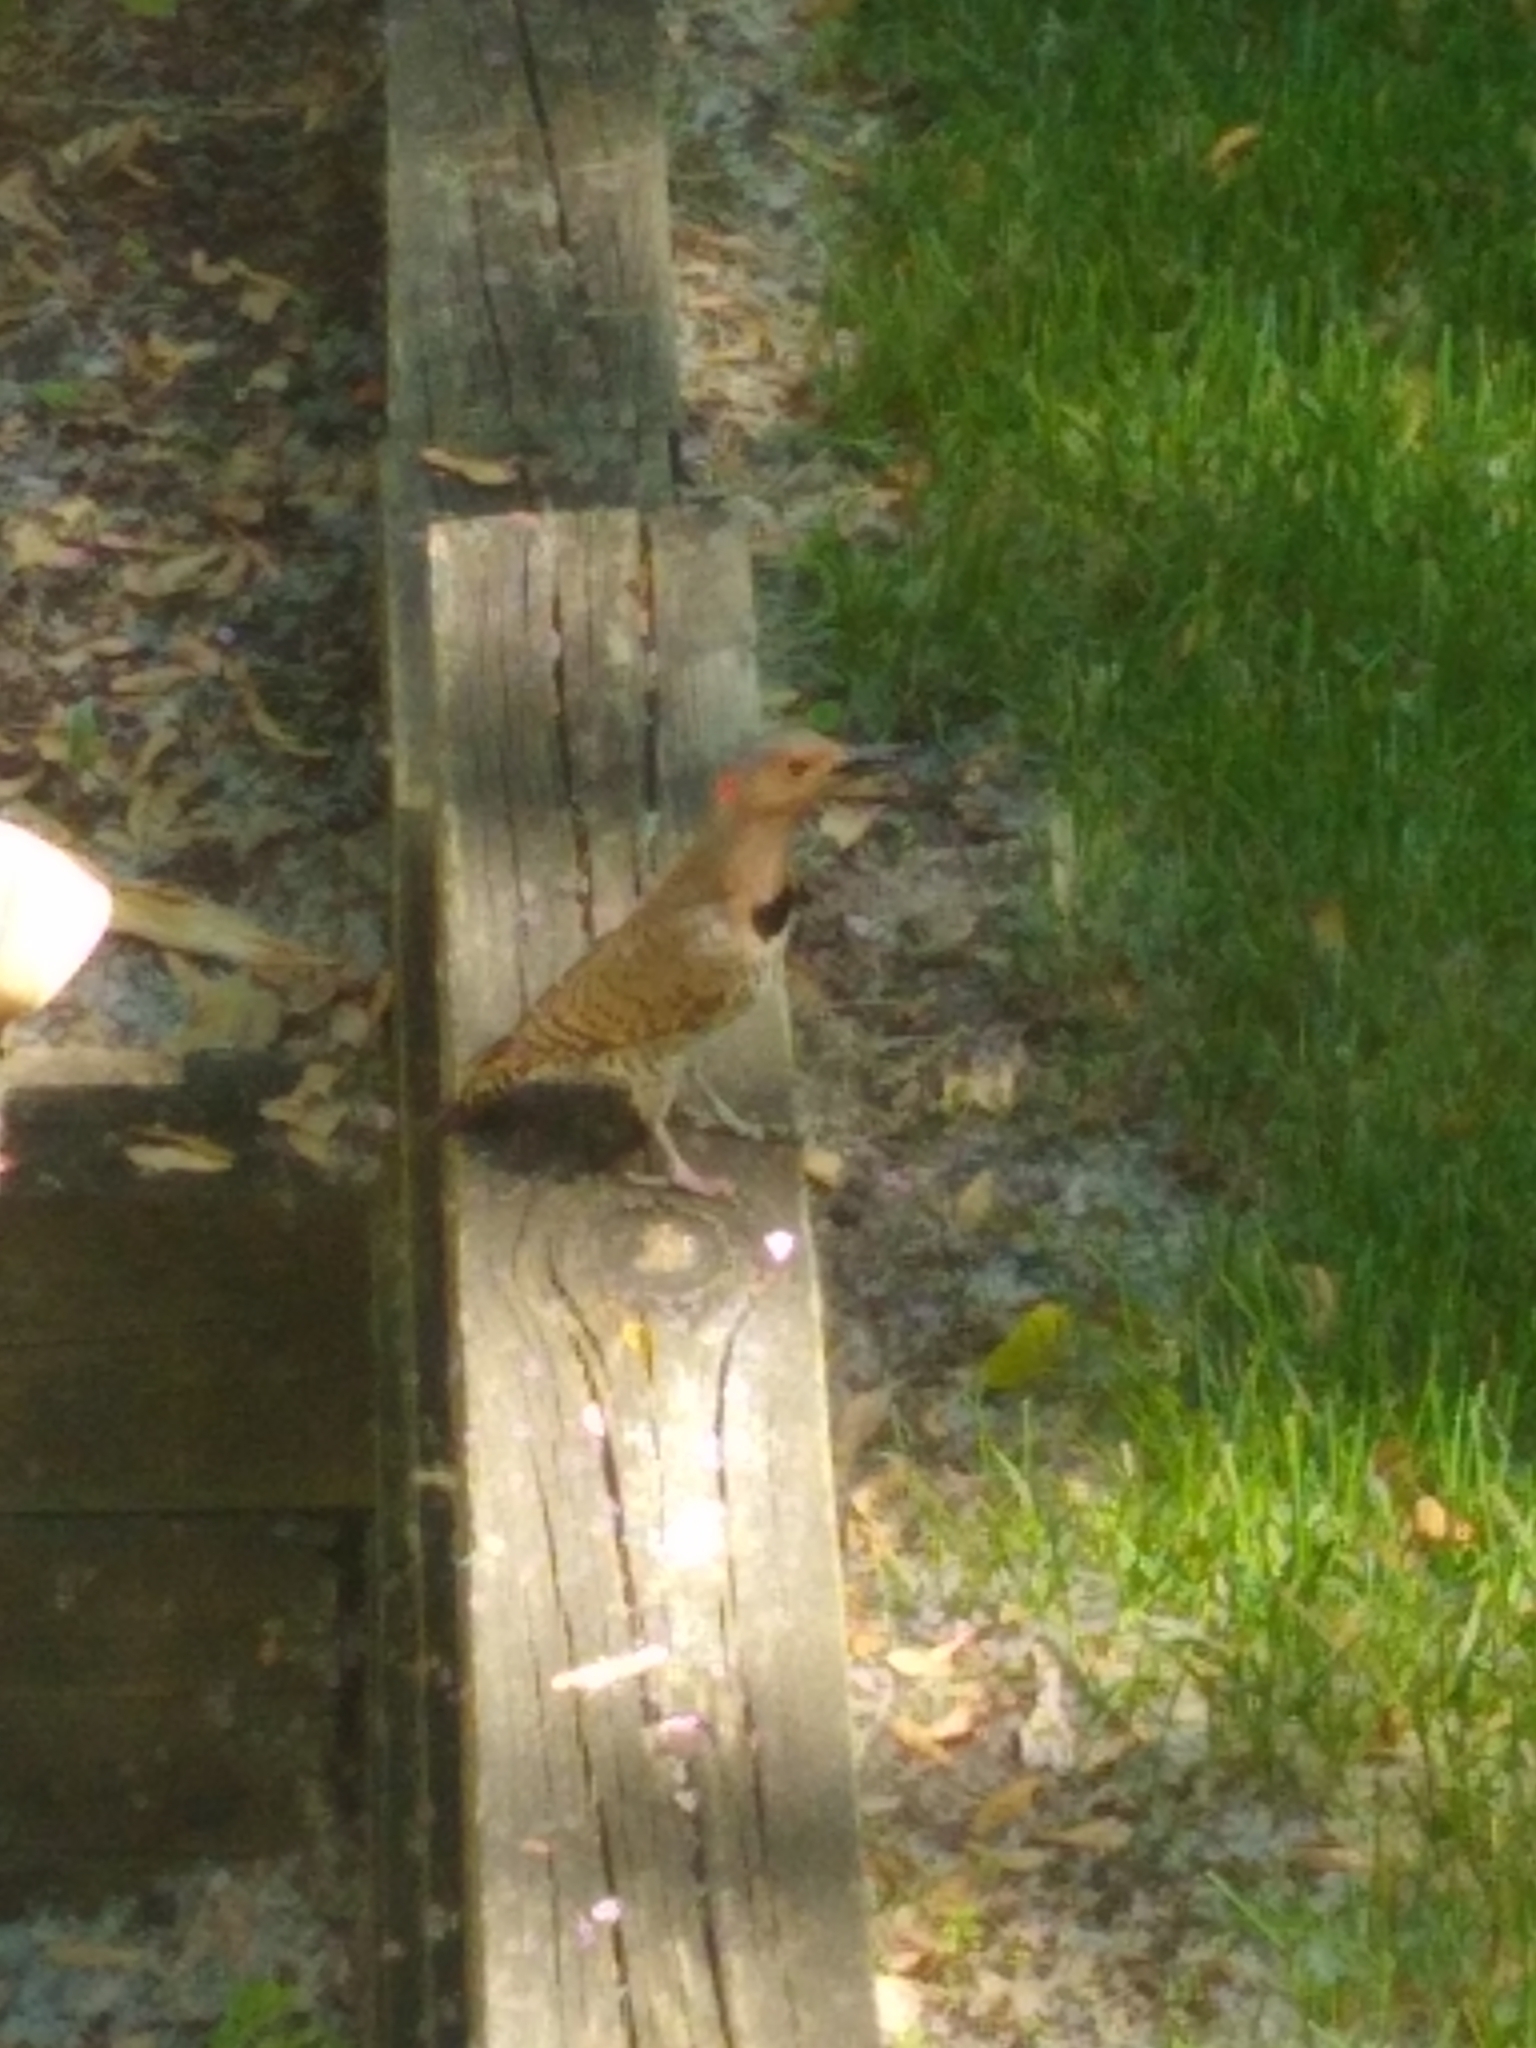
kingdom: Animalia
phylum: Chordata
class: Aves
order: Piciformes
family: Picidae
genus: Colaptes
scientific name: Colaptes auratus
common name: Northern flicker
